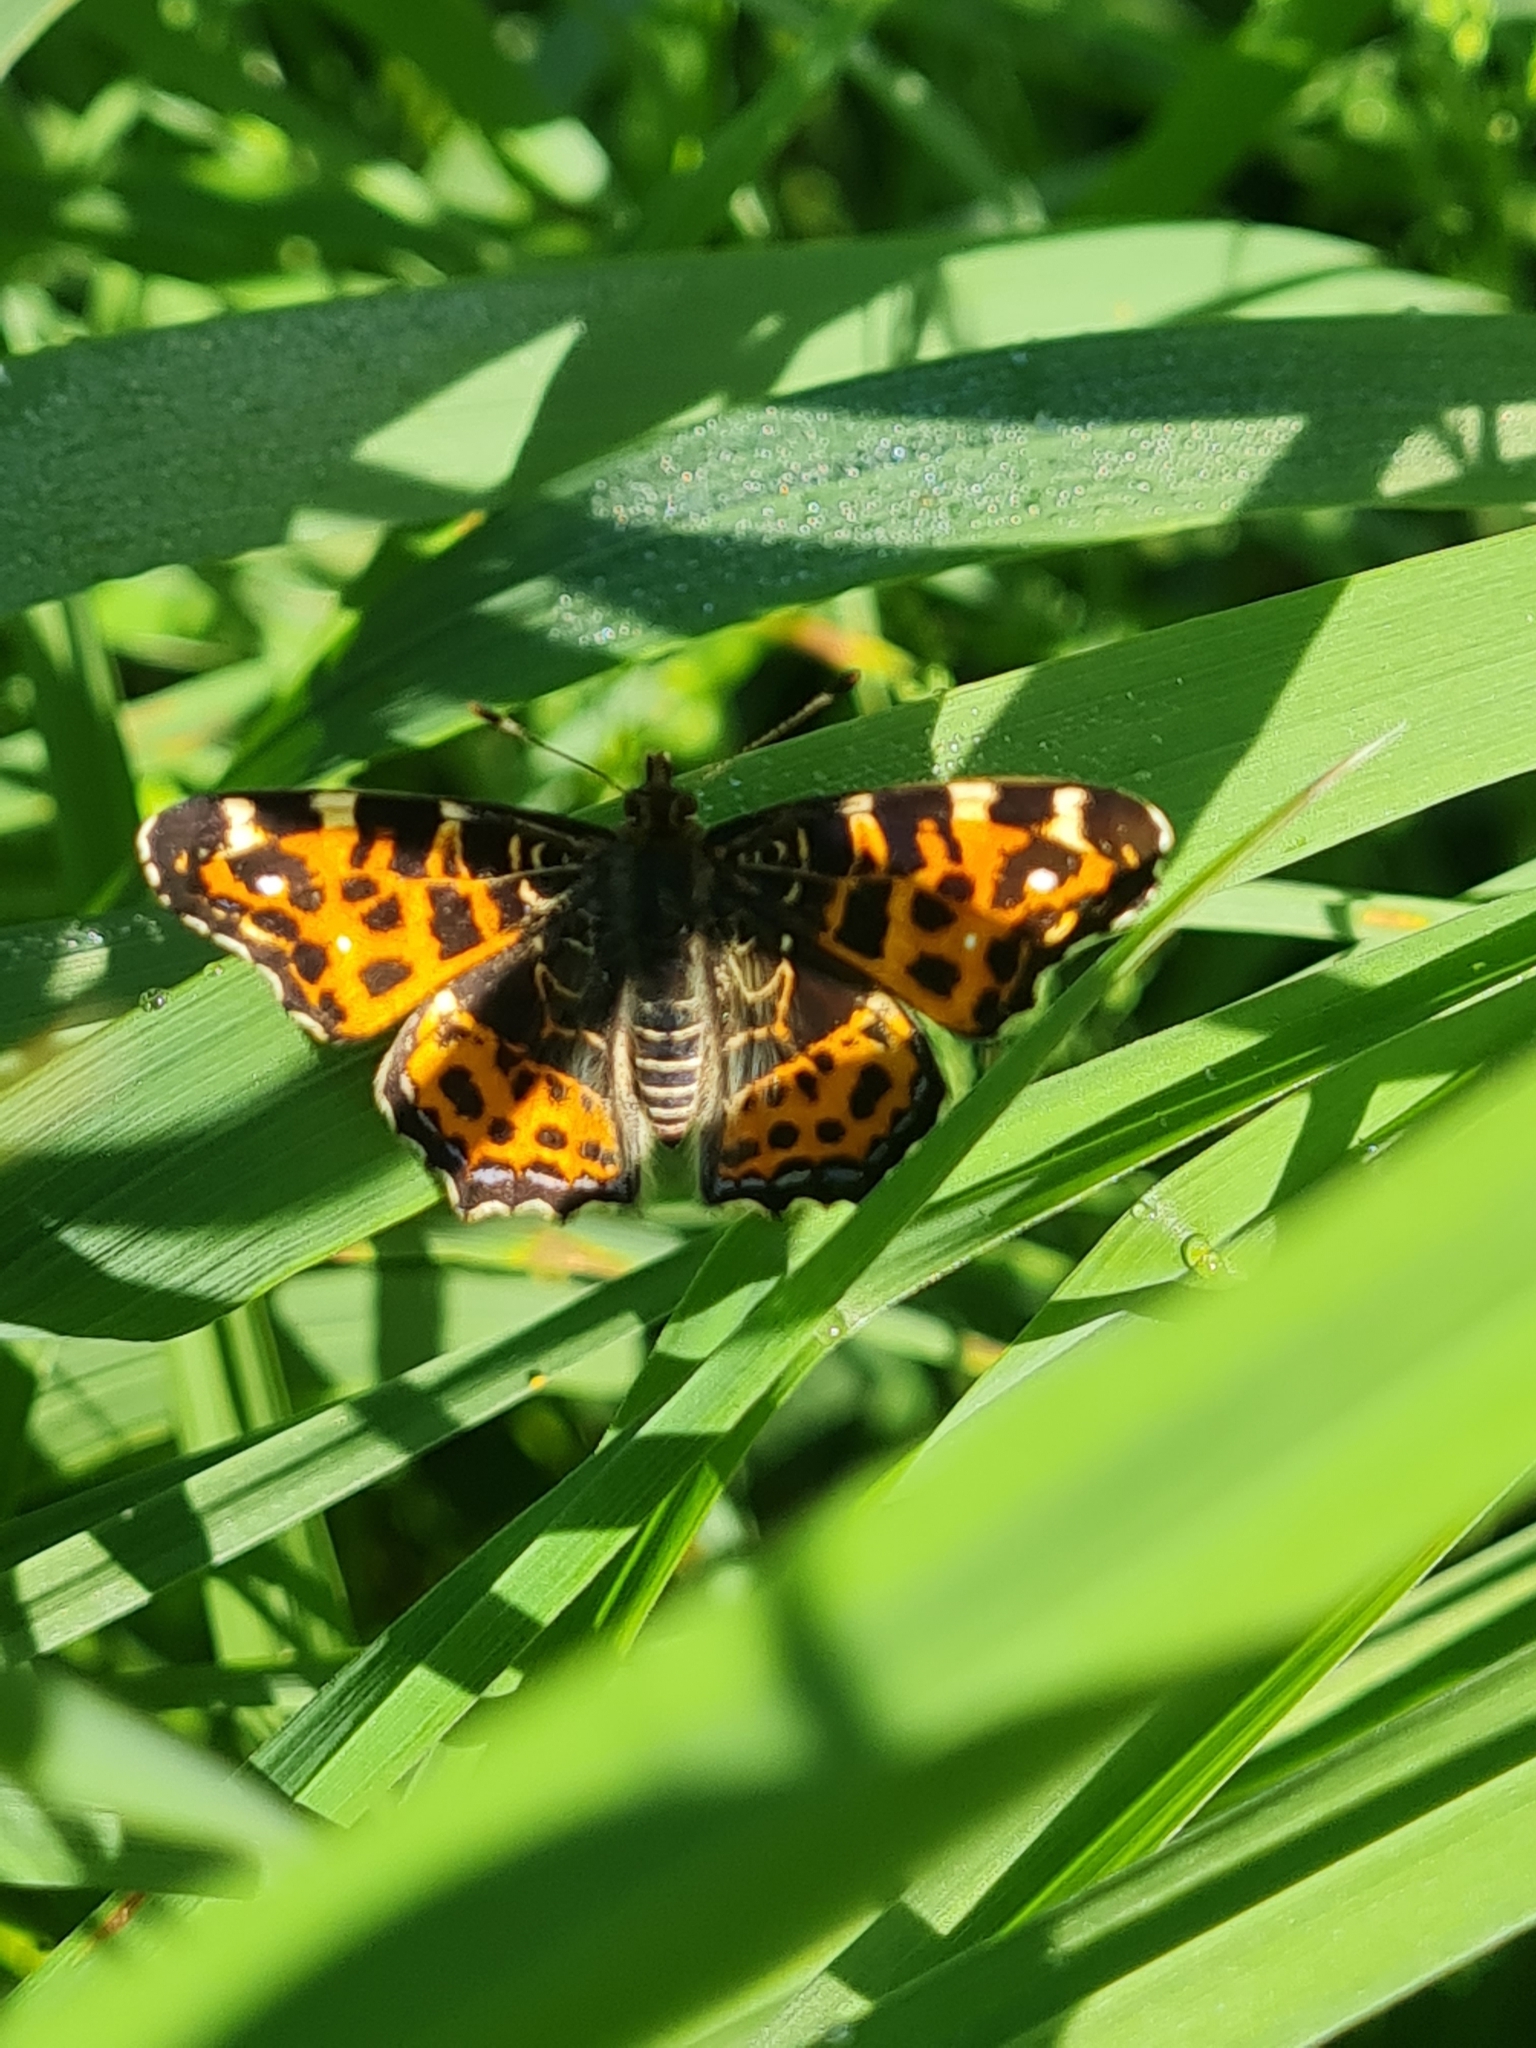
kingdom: Animalia
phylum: Arthropoda
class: Insecta
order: Lepidoptera
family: Nymphalidae
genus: Araschnia
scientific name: Araschnia levana
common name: Map butterfly
